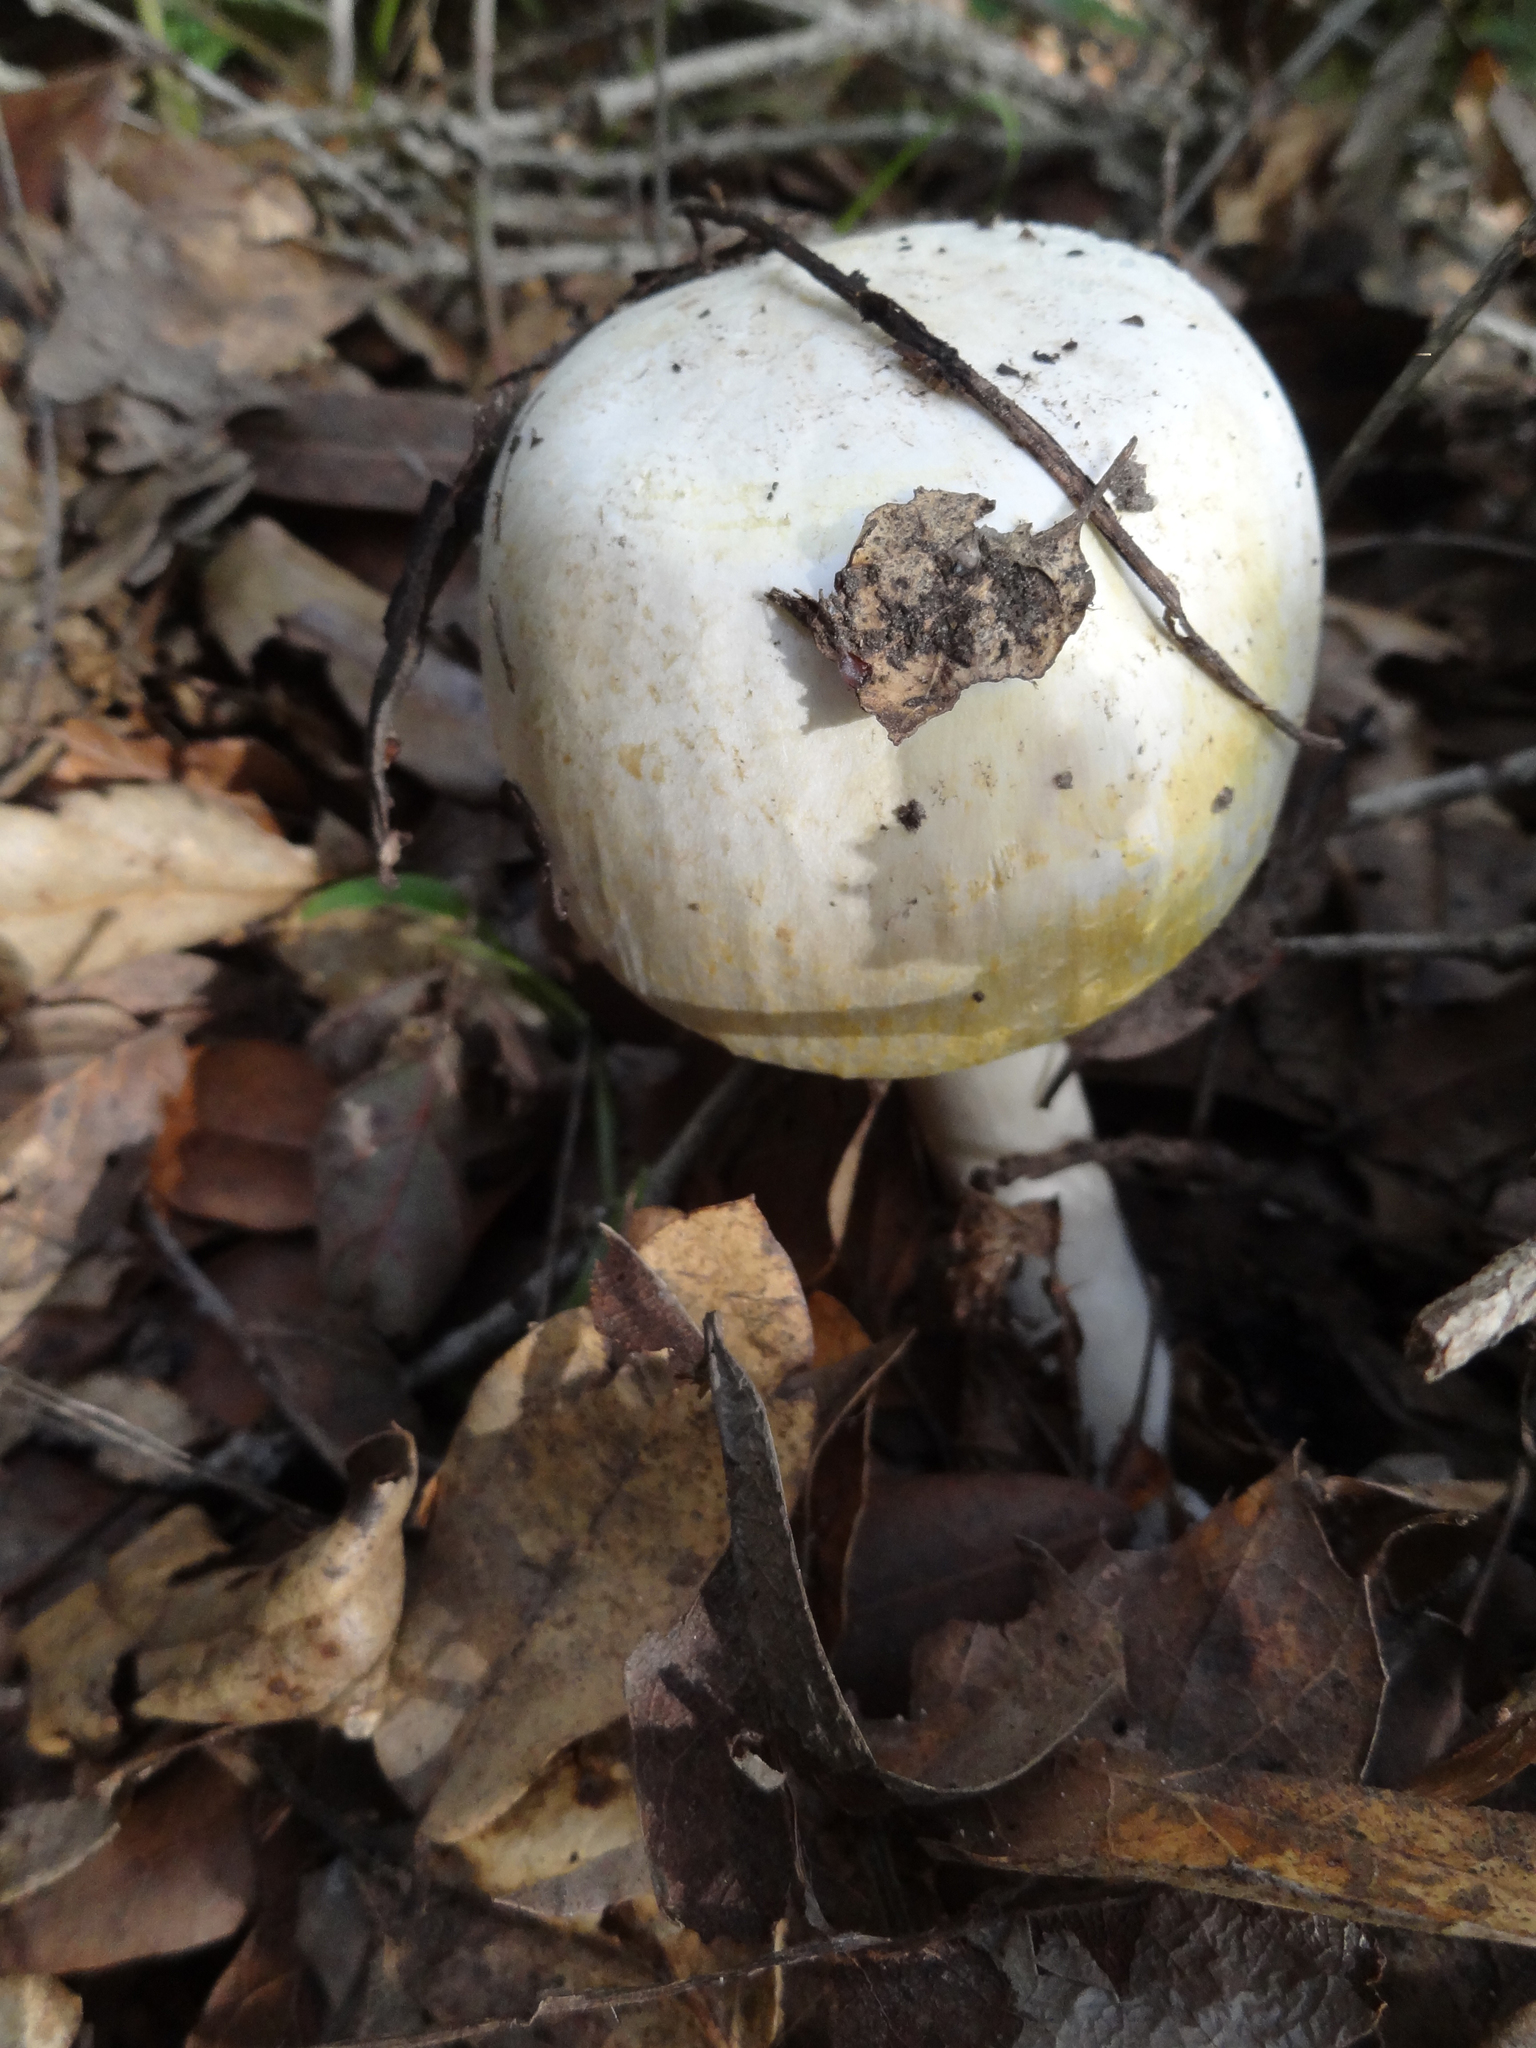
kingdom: Fungi
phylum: Basidiomycota
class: Agaricomycetes
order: Agaricales
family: Agaricaceae
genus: Agaricus
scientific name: Agaricus xanthodermus
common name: Yellow stainer
